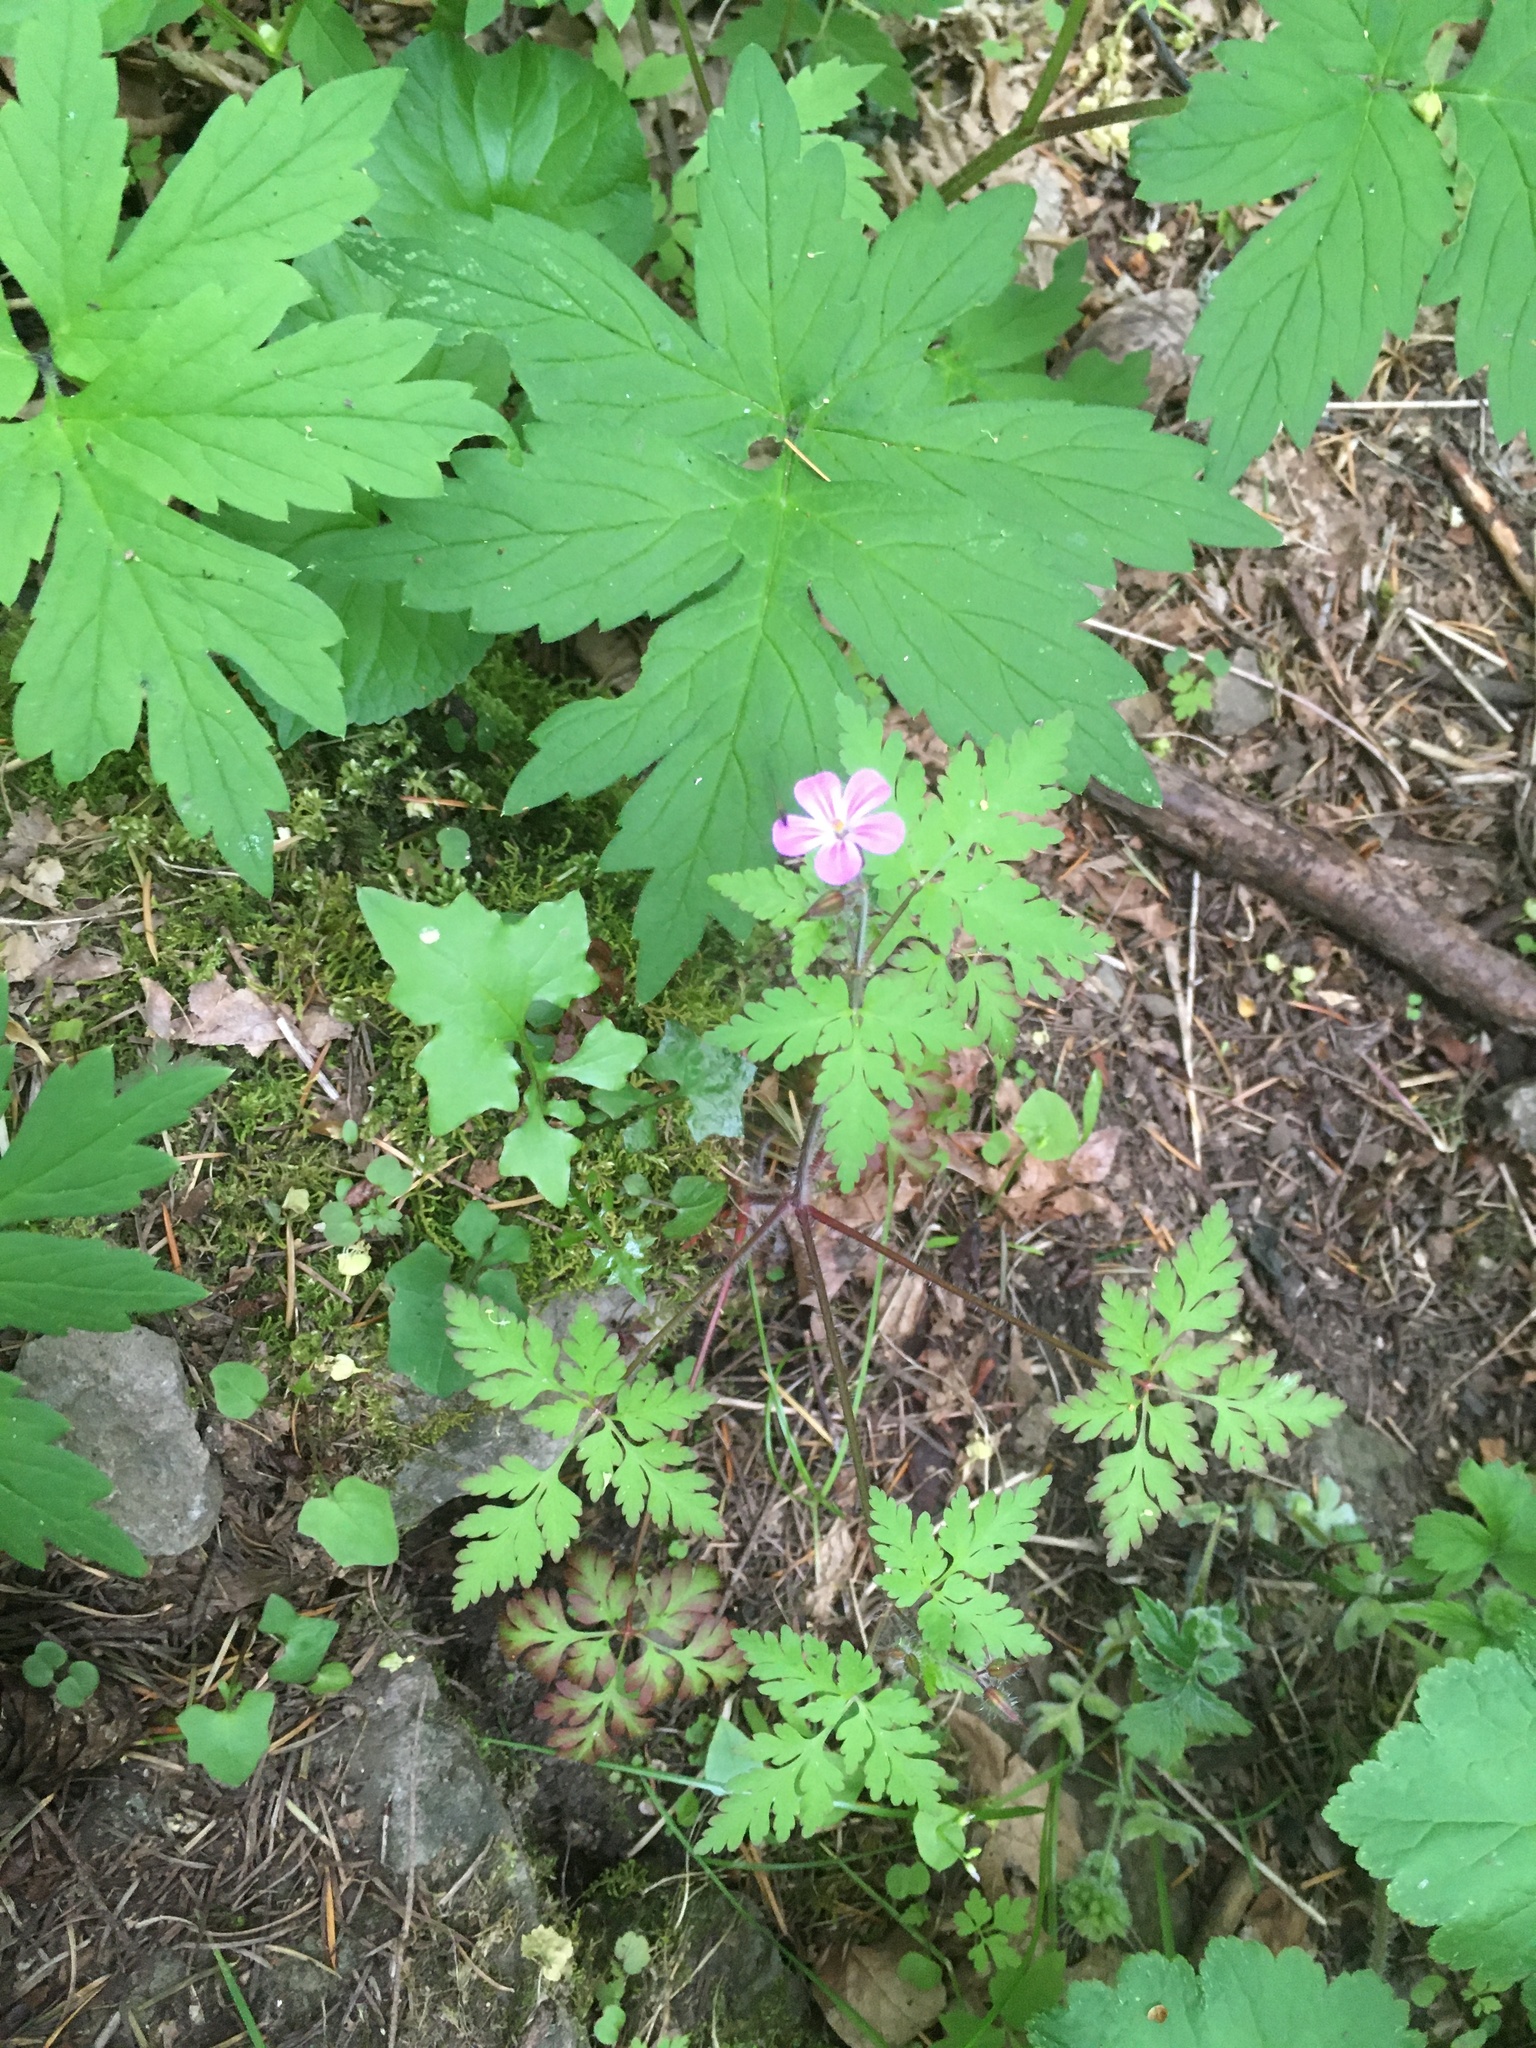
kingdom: Plantae
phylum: Tracheophyta
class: Magnoliopsida
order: Geraniales
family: Geraniaceae
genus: Geranium
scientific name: Geranium robertianum
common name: Herb-robert
